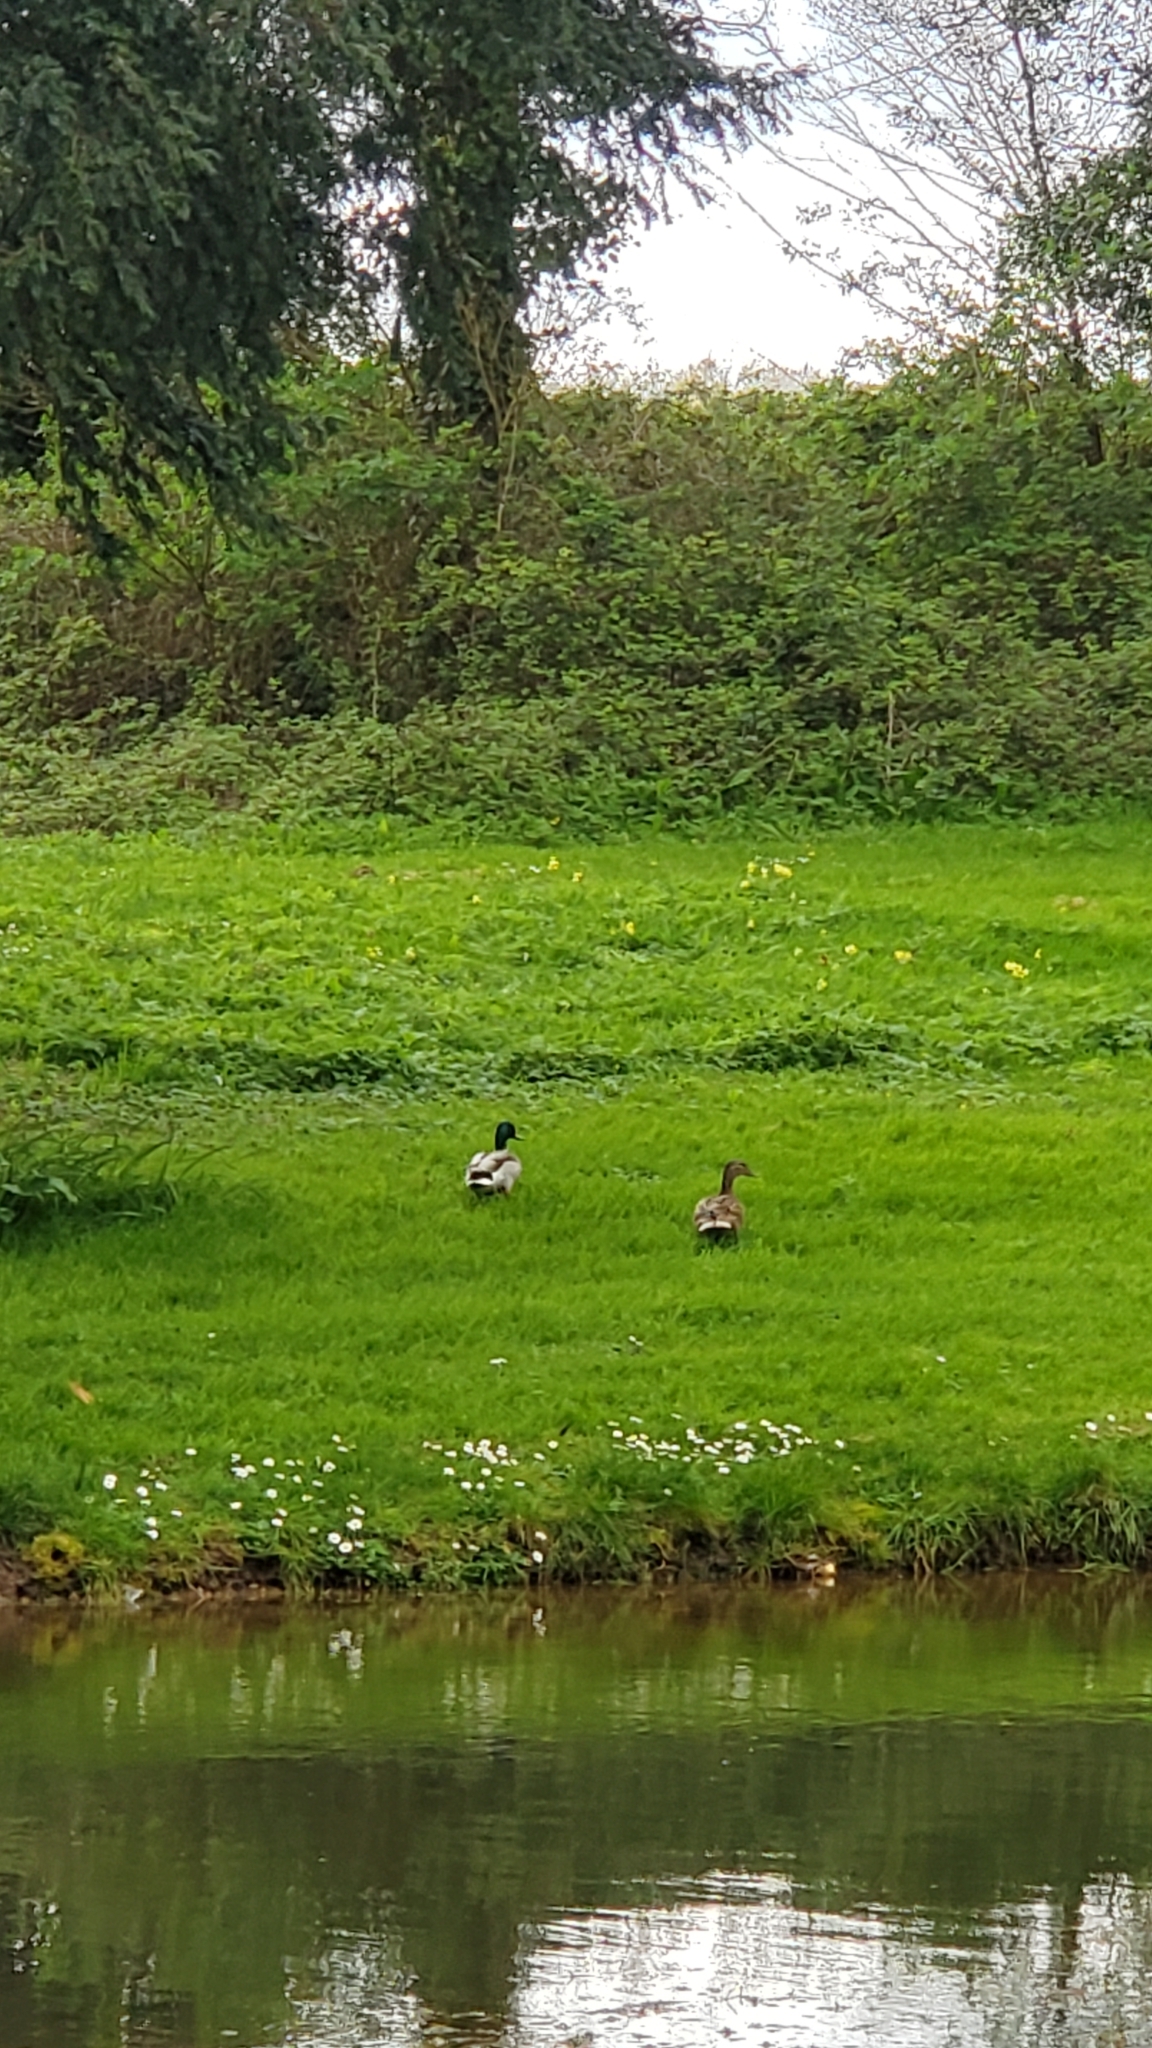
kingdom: Animalia
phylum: Chordata
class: Aves
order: Anseriformes
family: Anatidae
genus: Anas
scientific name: Anas platyrhynchos
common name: Mallard
